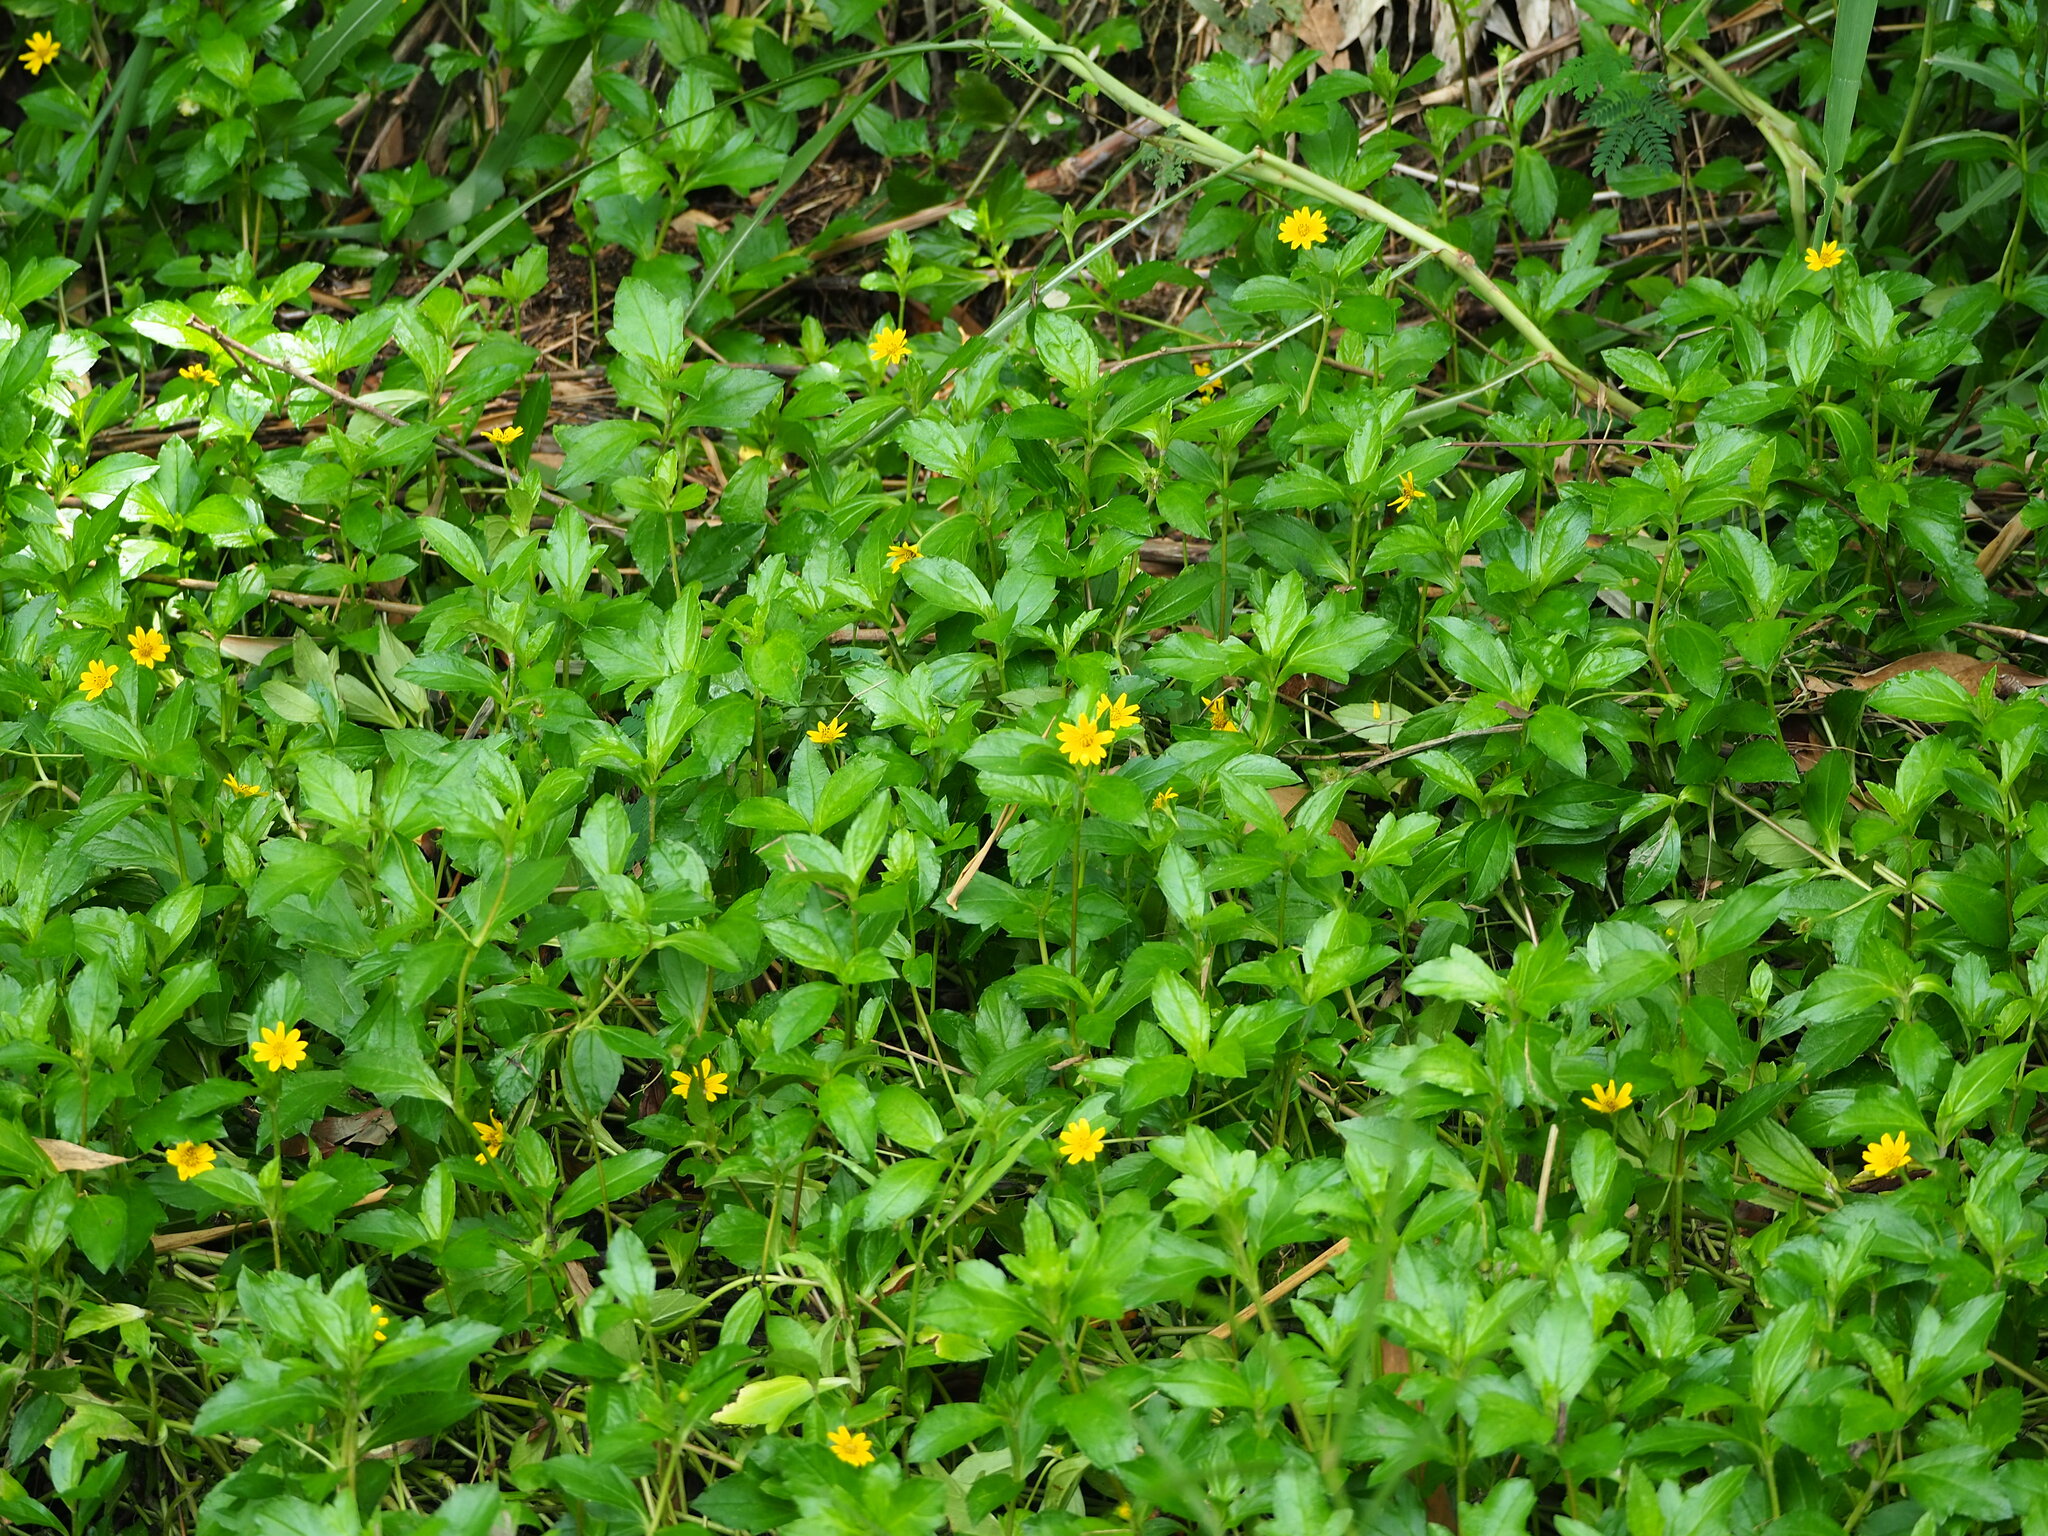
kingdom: Plantae
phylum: Tracheophyta
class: Magnoliopsida
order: Asterales
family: Asteraceae
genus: Sphagneticola
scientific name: Sphagneticola trilobata
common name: Bay biscayne creeping-oxeye
